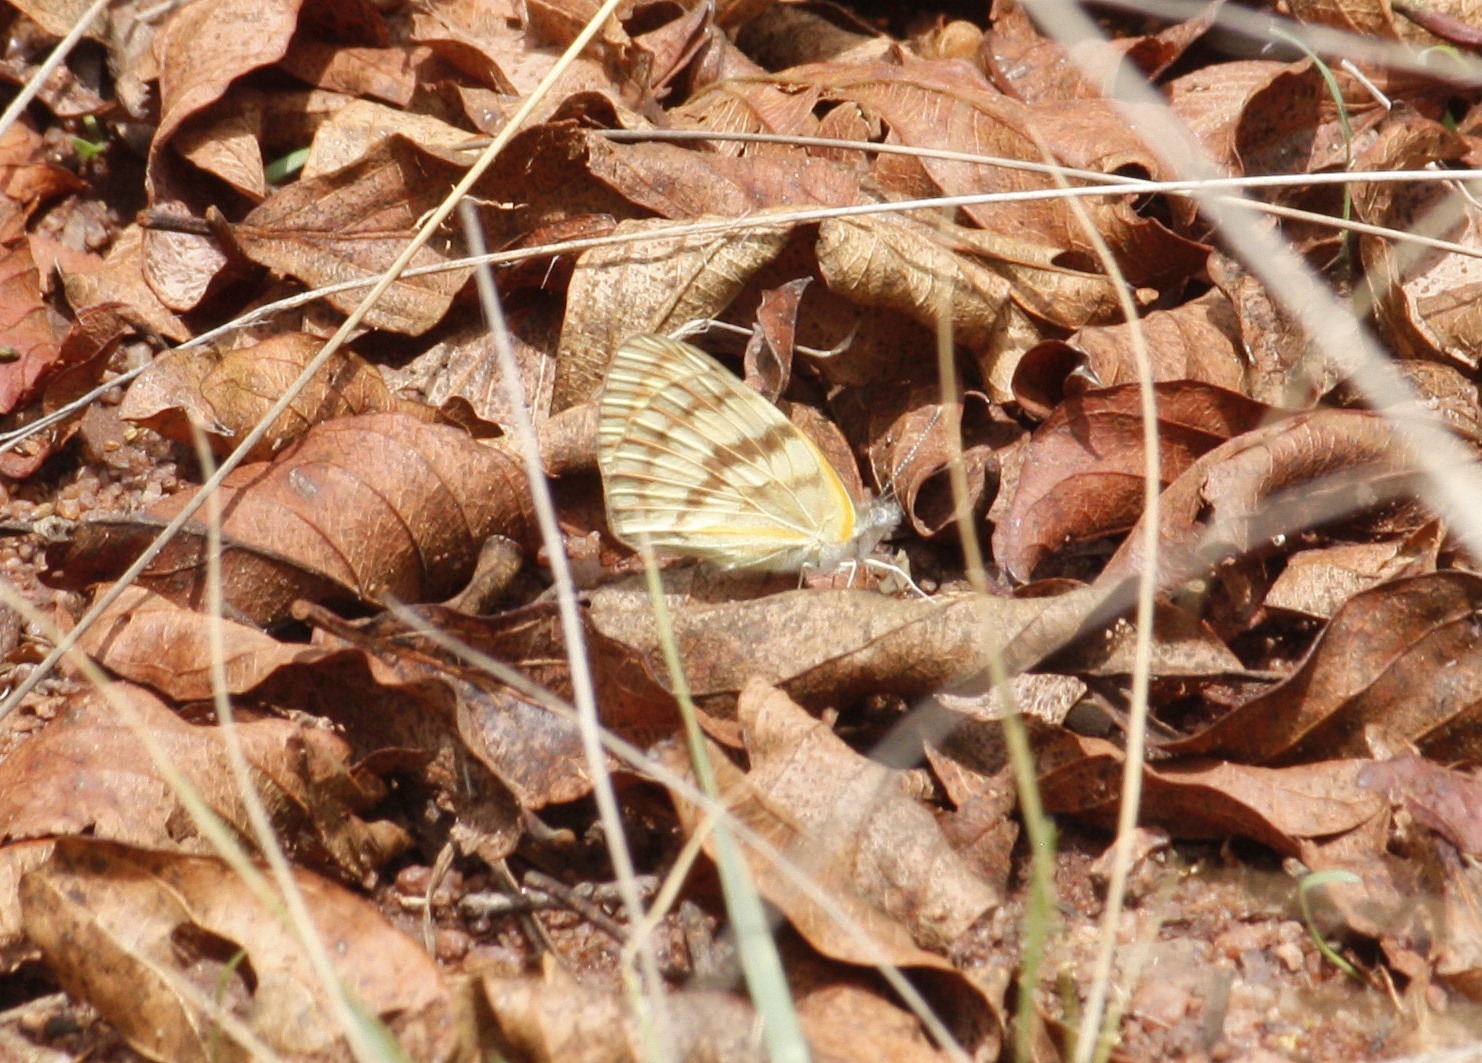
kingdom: Animalia
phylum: Arthropoda
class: Insecta
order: Lepidoptera
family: Pieridae
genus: Colotis
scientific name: Colotis vesta
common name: Veined golden arab
